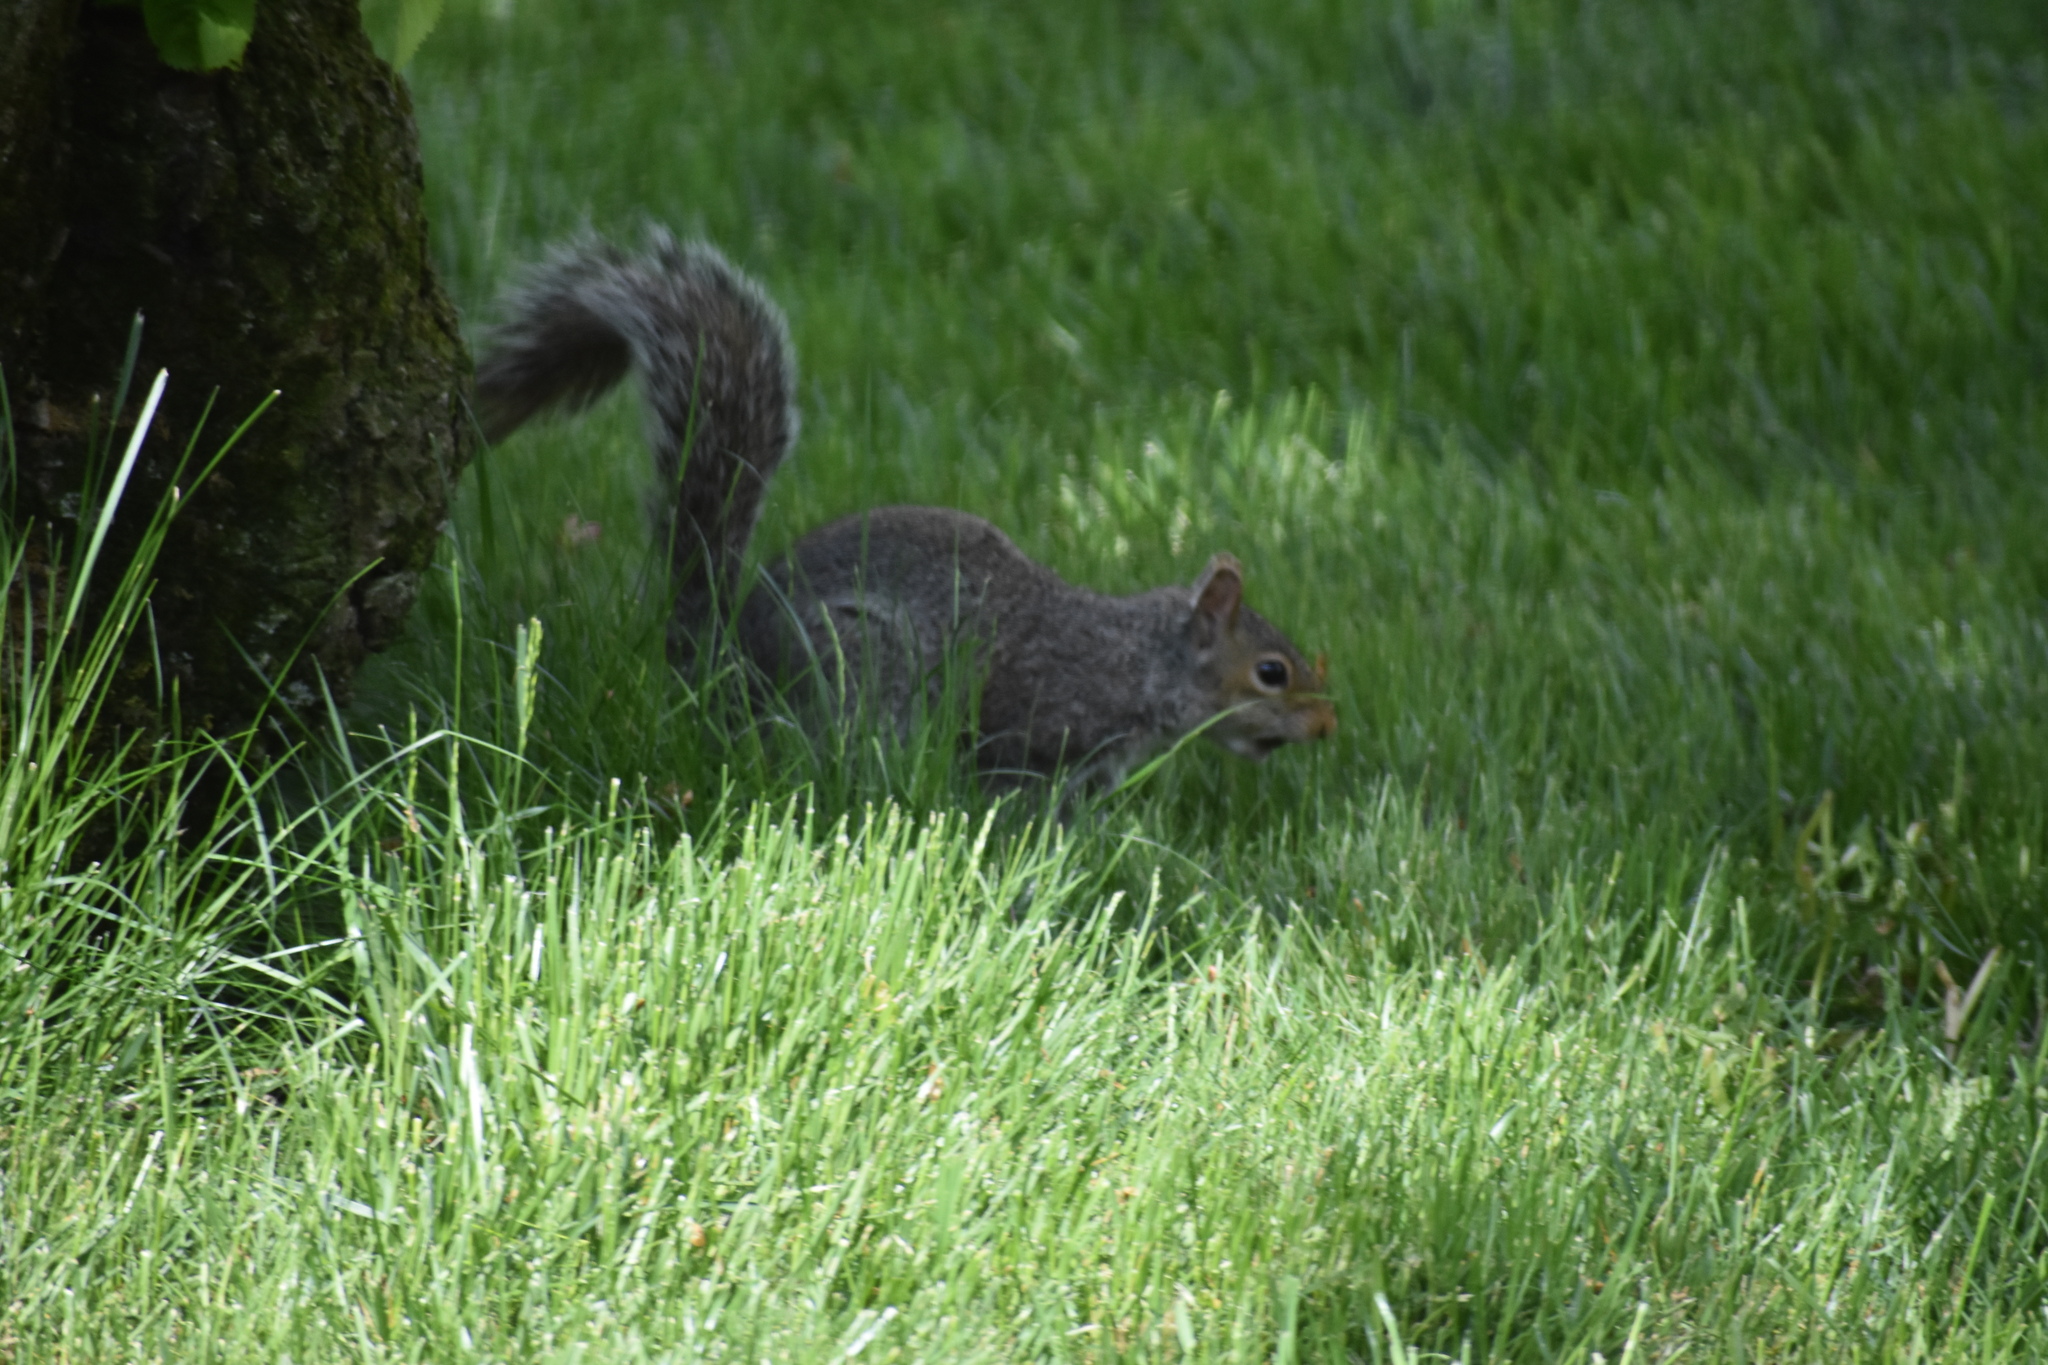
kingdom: Animalia
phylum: Chordata
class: Mammalia
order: Rodentia
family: Sciuridae
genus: Sciurus
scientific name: Sciurus carolinensis
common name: Eastern gray squirrel
